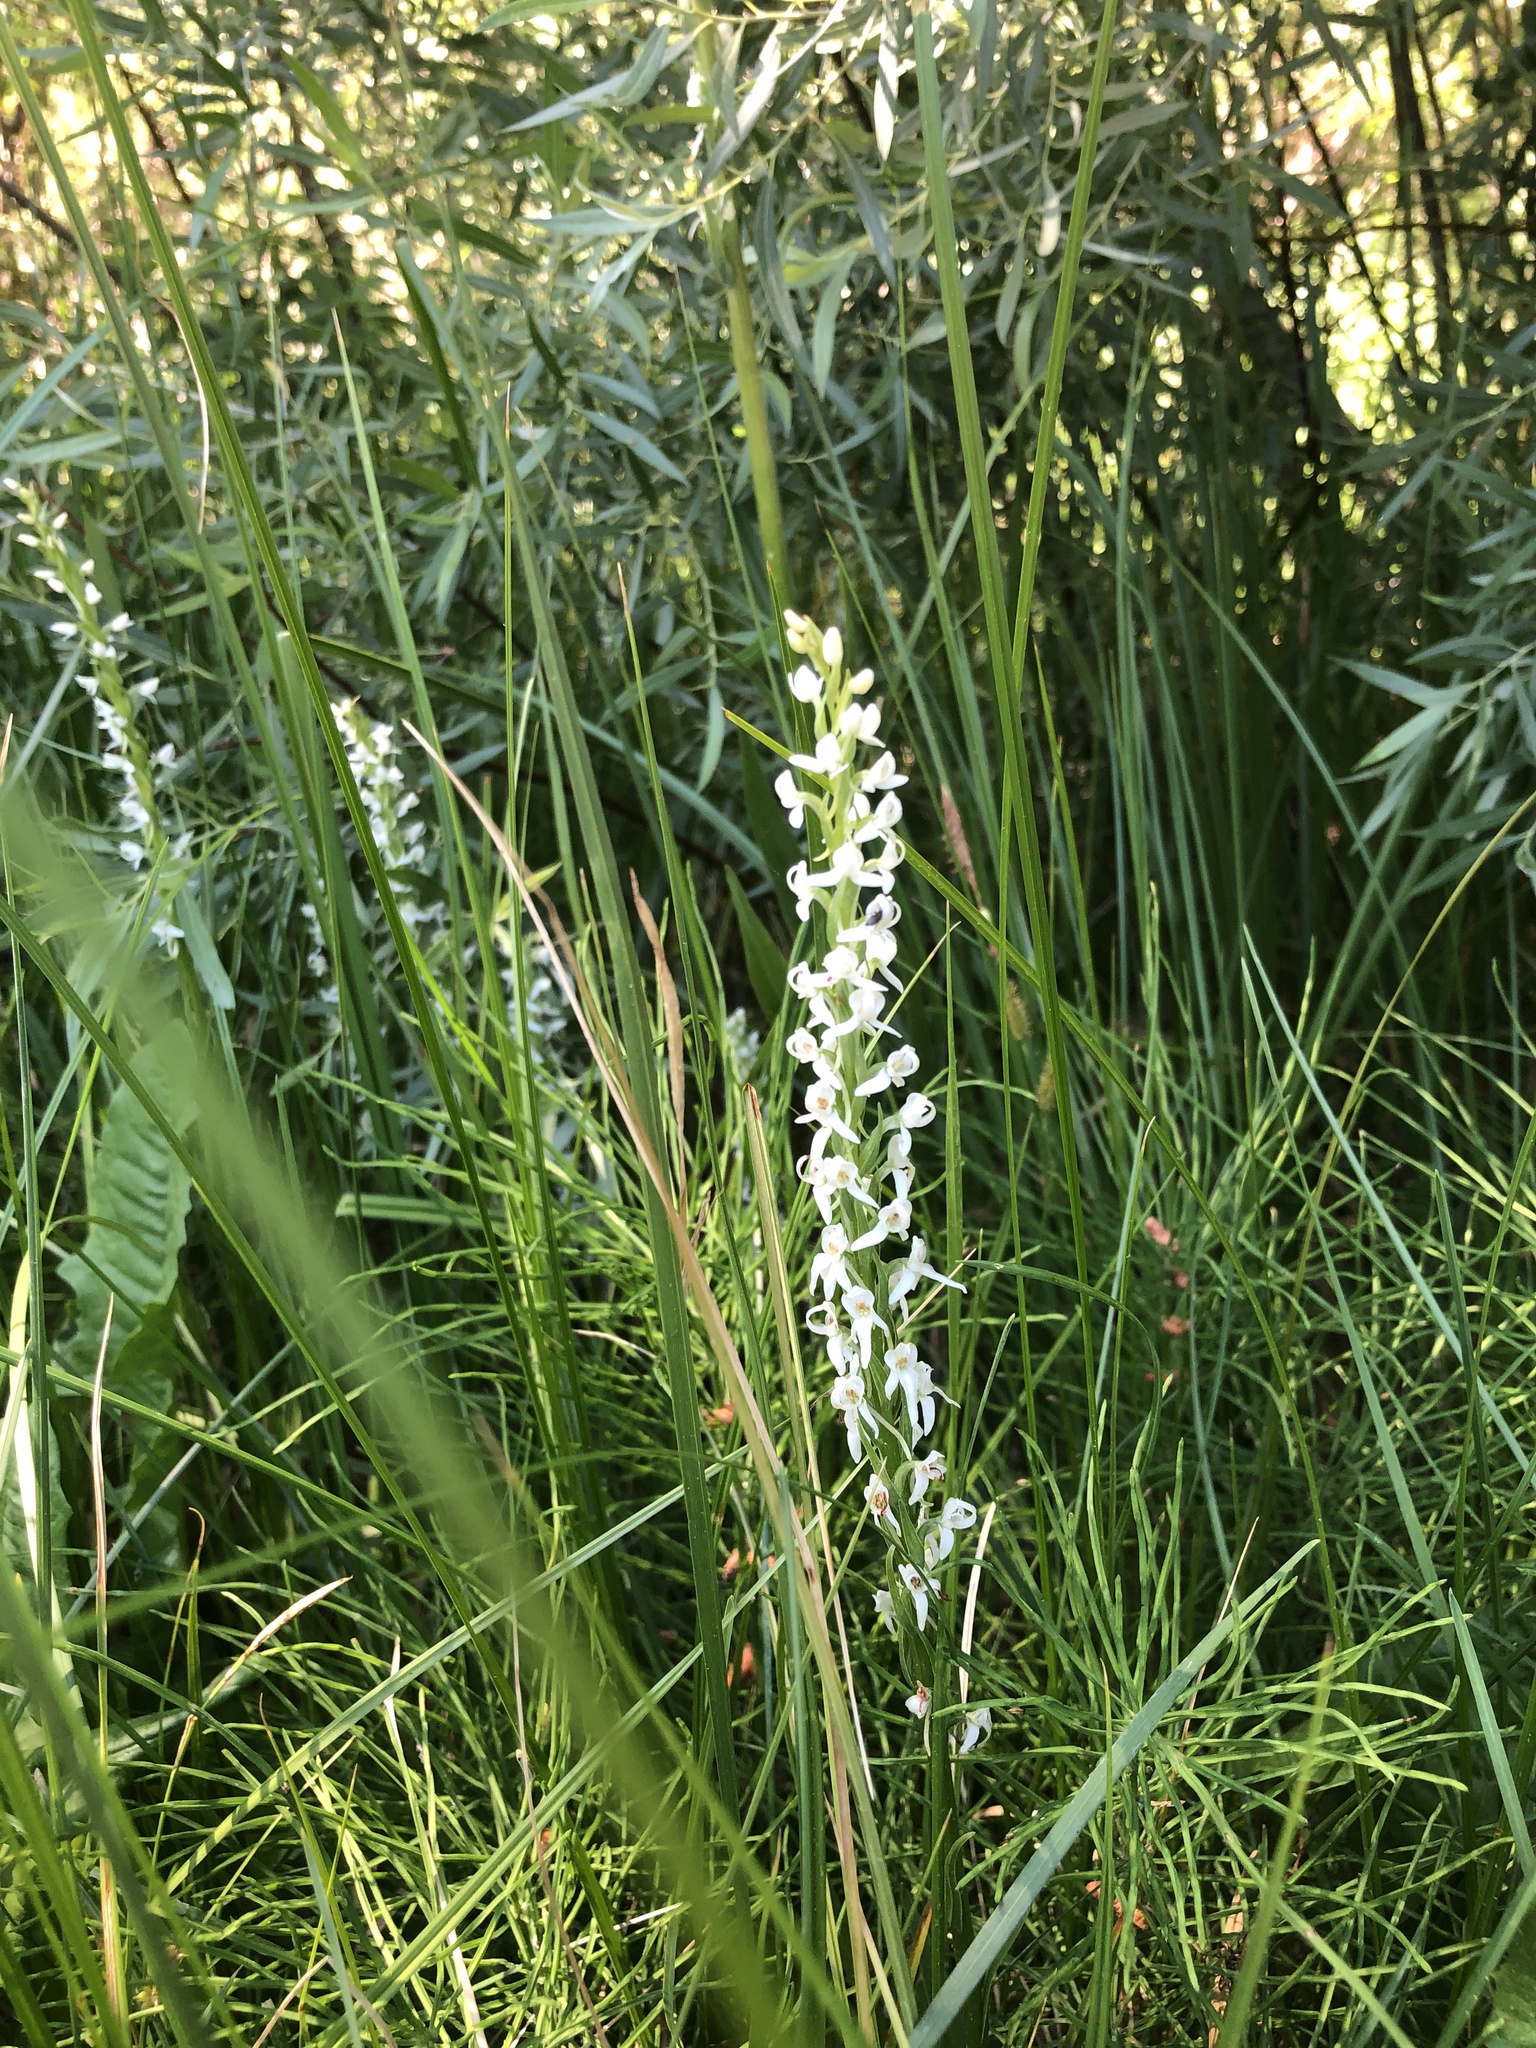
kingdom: Plantae
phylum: Tracheophyta
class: Liliopsida
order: Asparagales
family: Orchidaceae
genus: Platanthera
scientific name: Platanthera dilatata
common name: Bog candles
